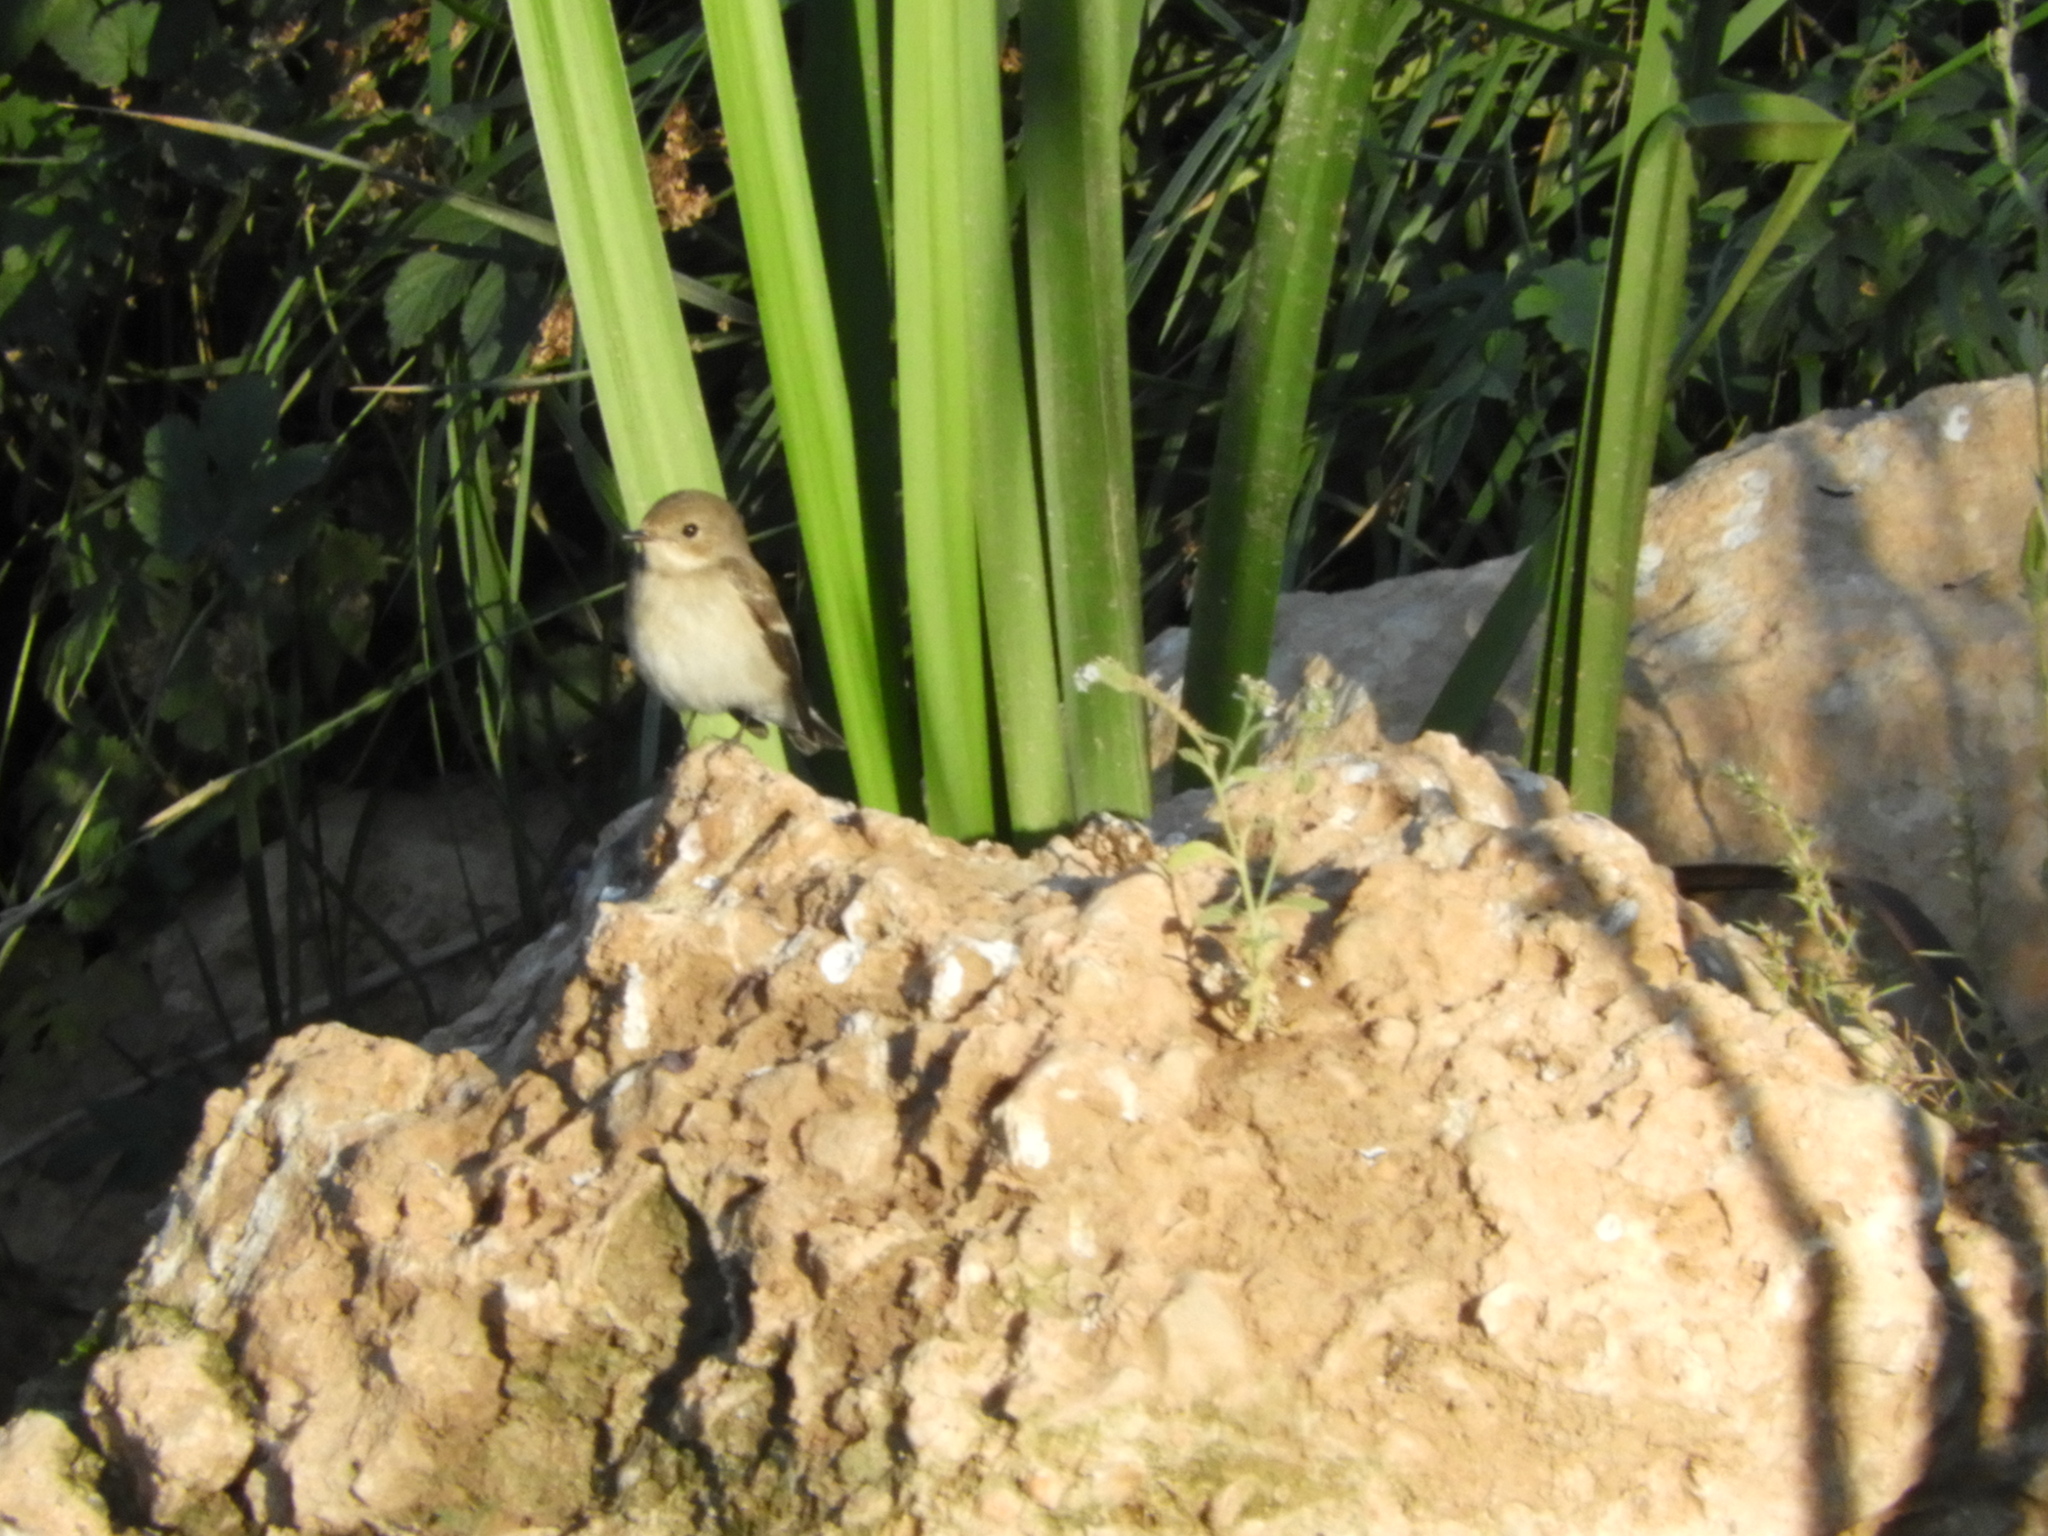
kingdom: Animalia
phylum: Chordata
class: Aves
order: Passeriformes
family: Muscicapidae
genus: Ficedula
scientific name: Ficedula hypoleuca
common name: European pied flycatcher
